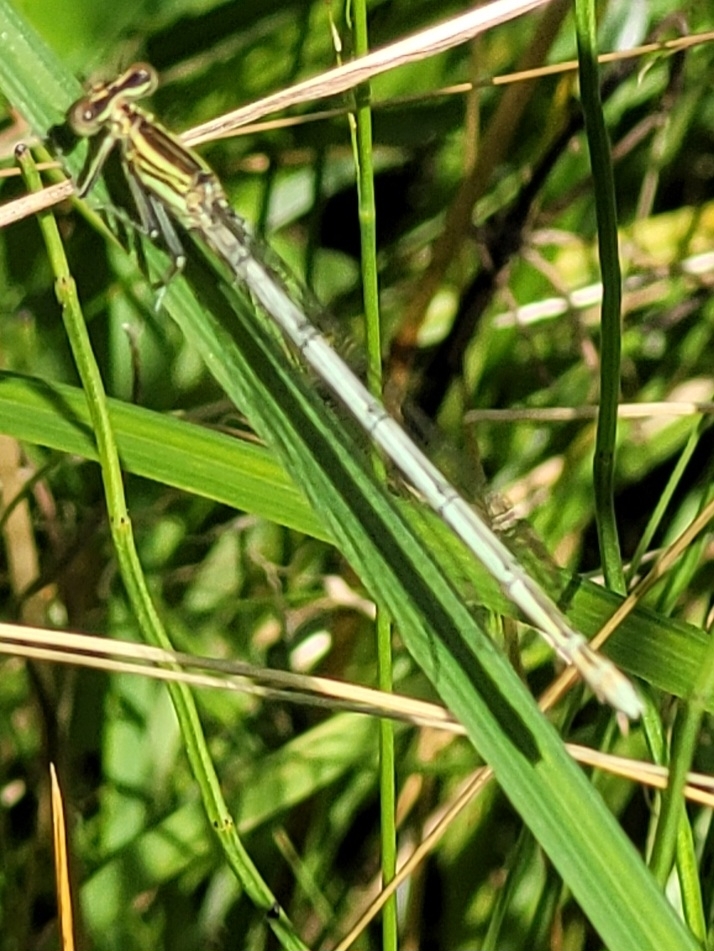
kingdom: Animalia
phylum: Arthropoda
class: Insecta
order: Odonata
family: Platycnemididae
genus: Platycnemis
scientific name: Platycnemis pennipes
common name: White-legged damselfly
